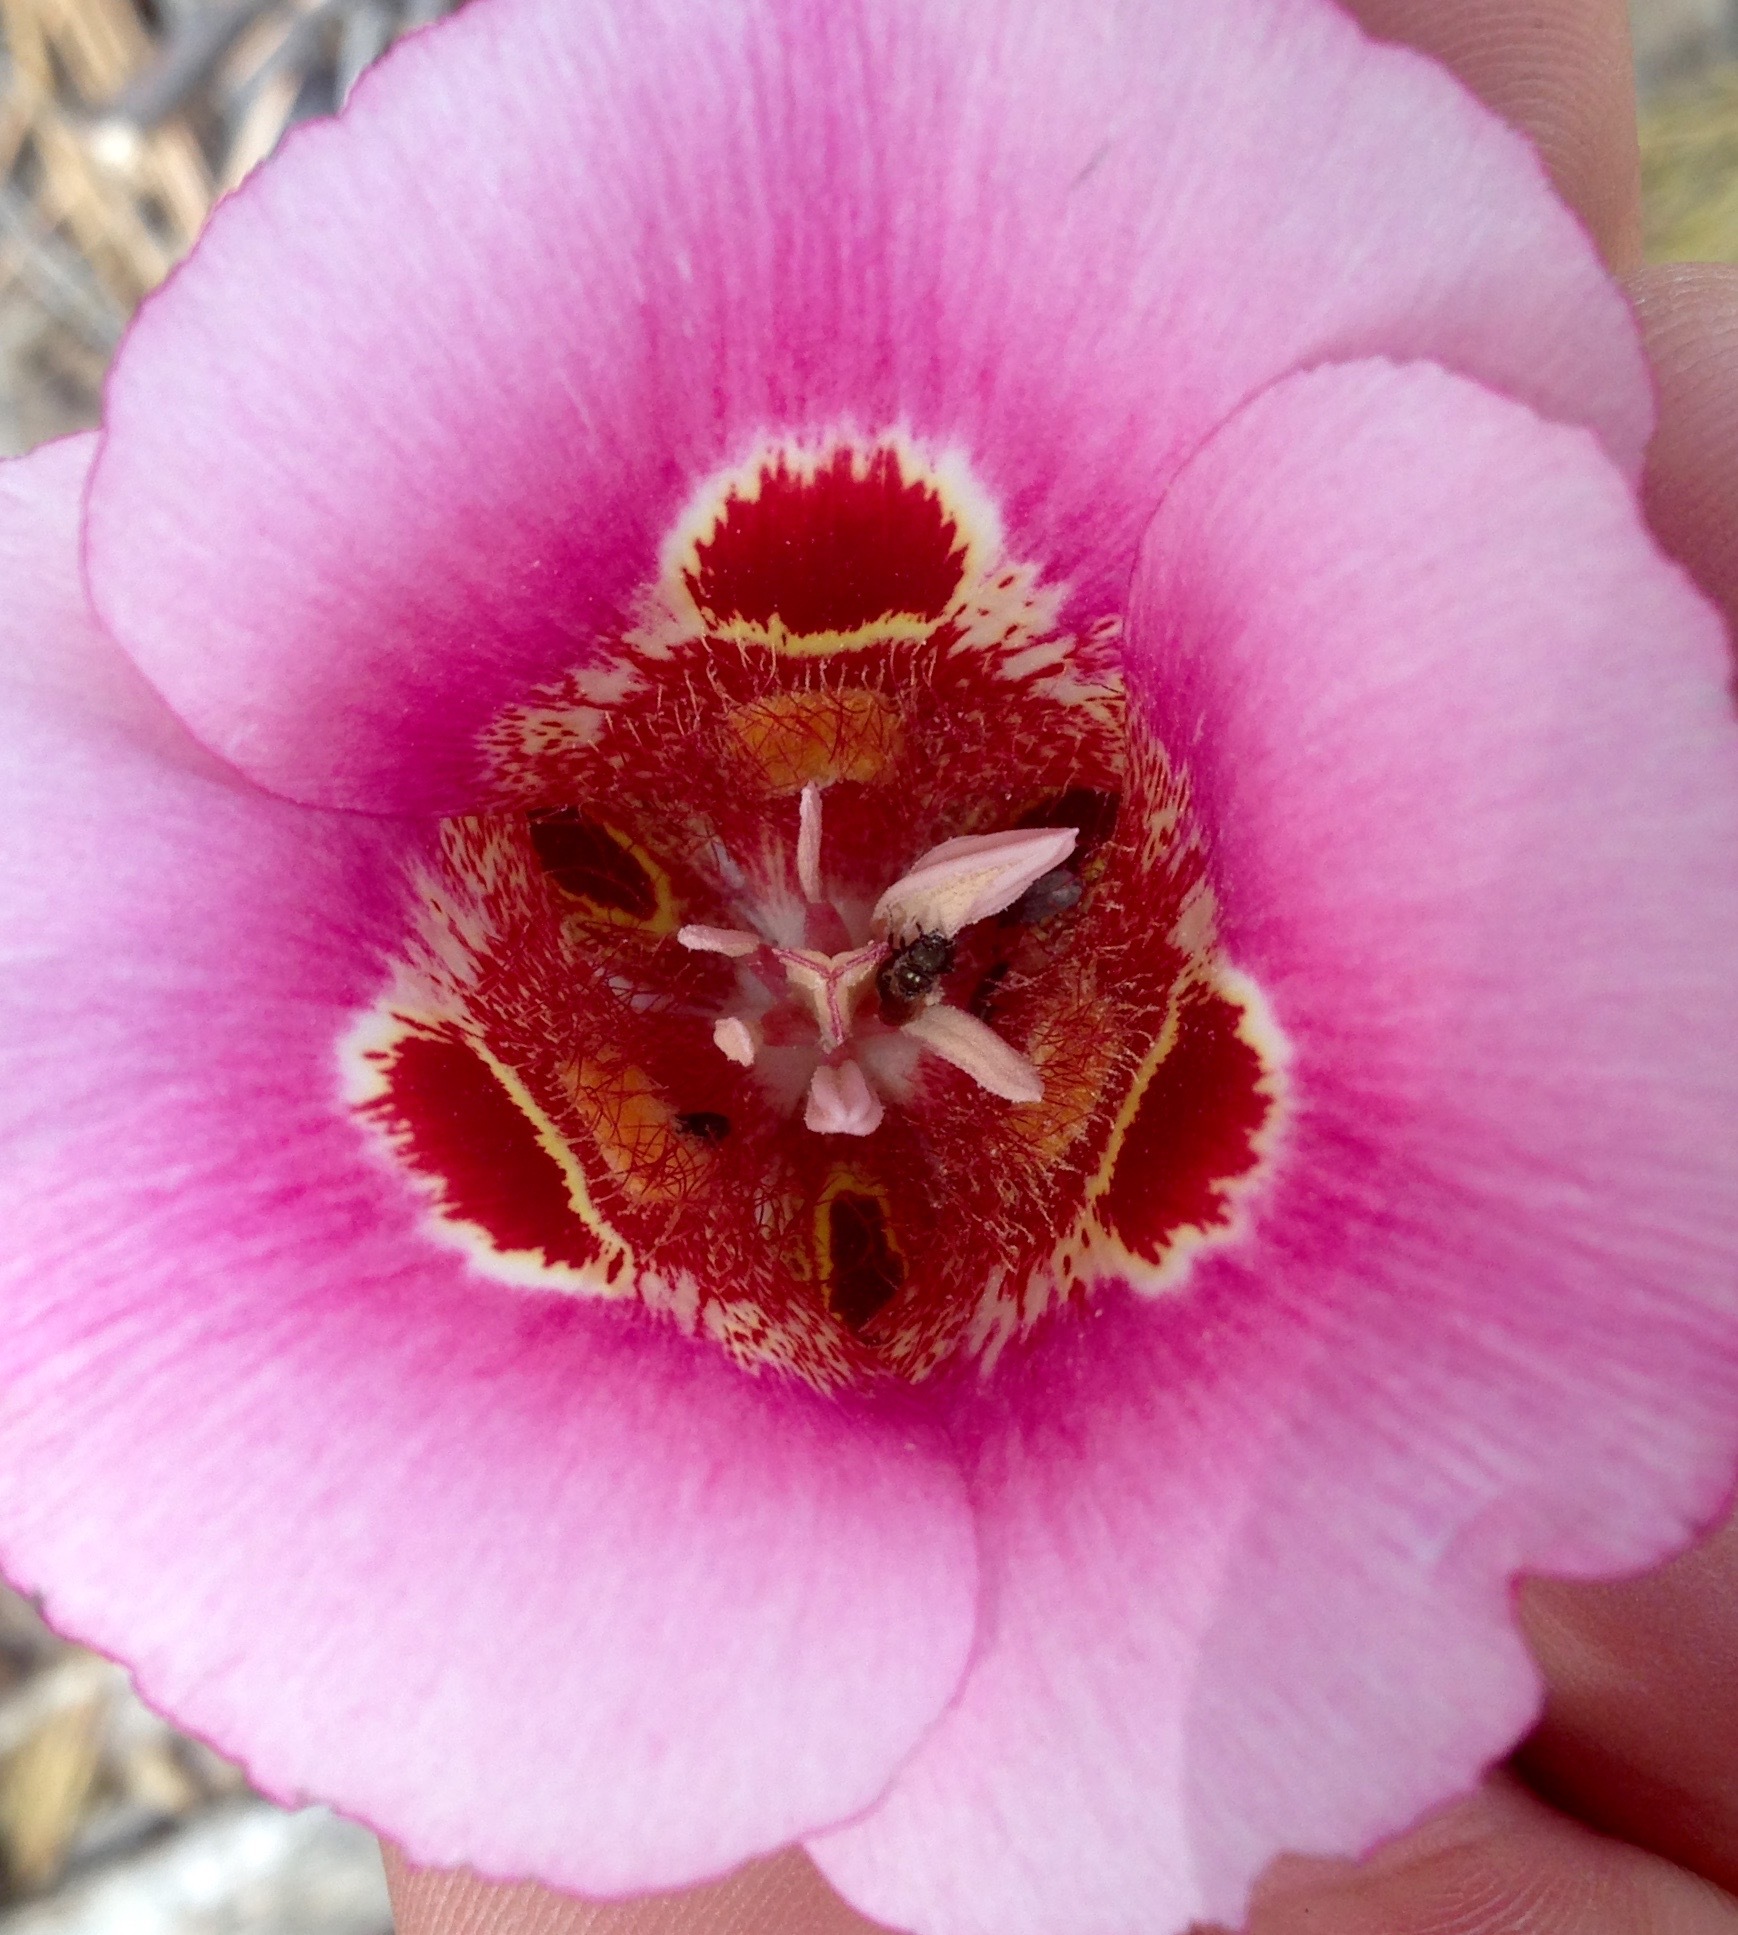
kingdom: Plantae
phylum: Tracheophyta
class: Liliopsida
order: Liliales
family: Liliaceae
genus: Calochortus
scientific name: Calochortus venustus
